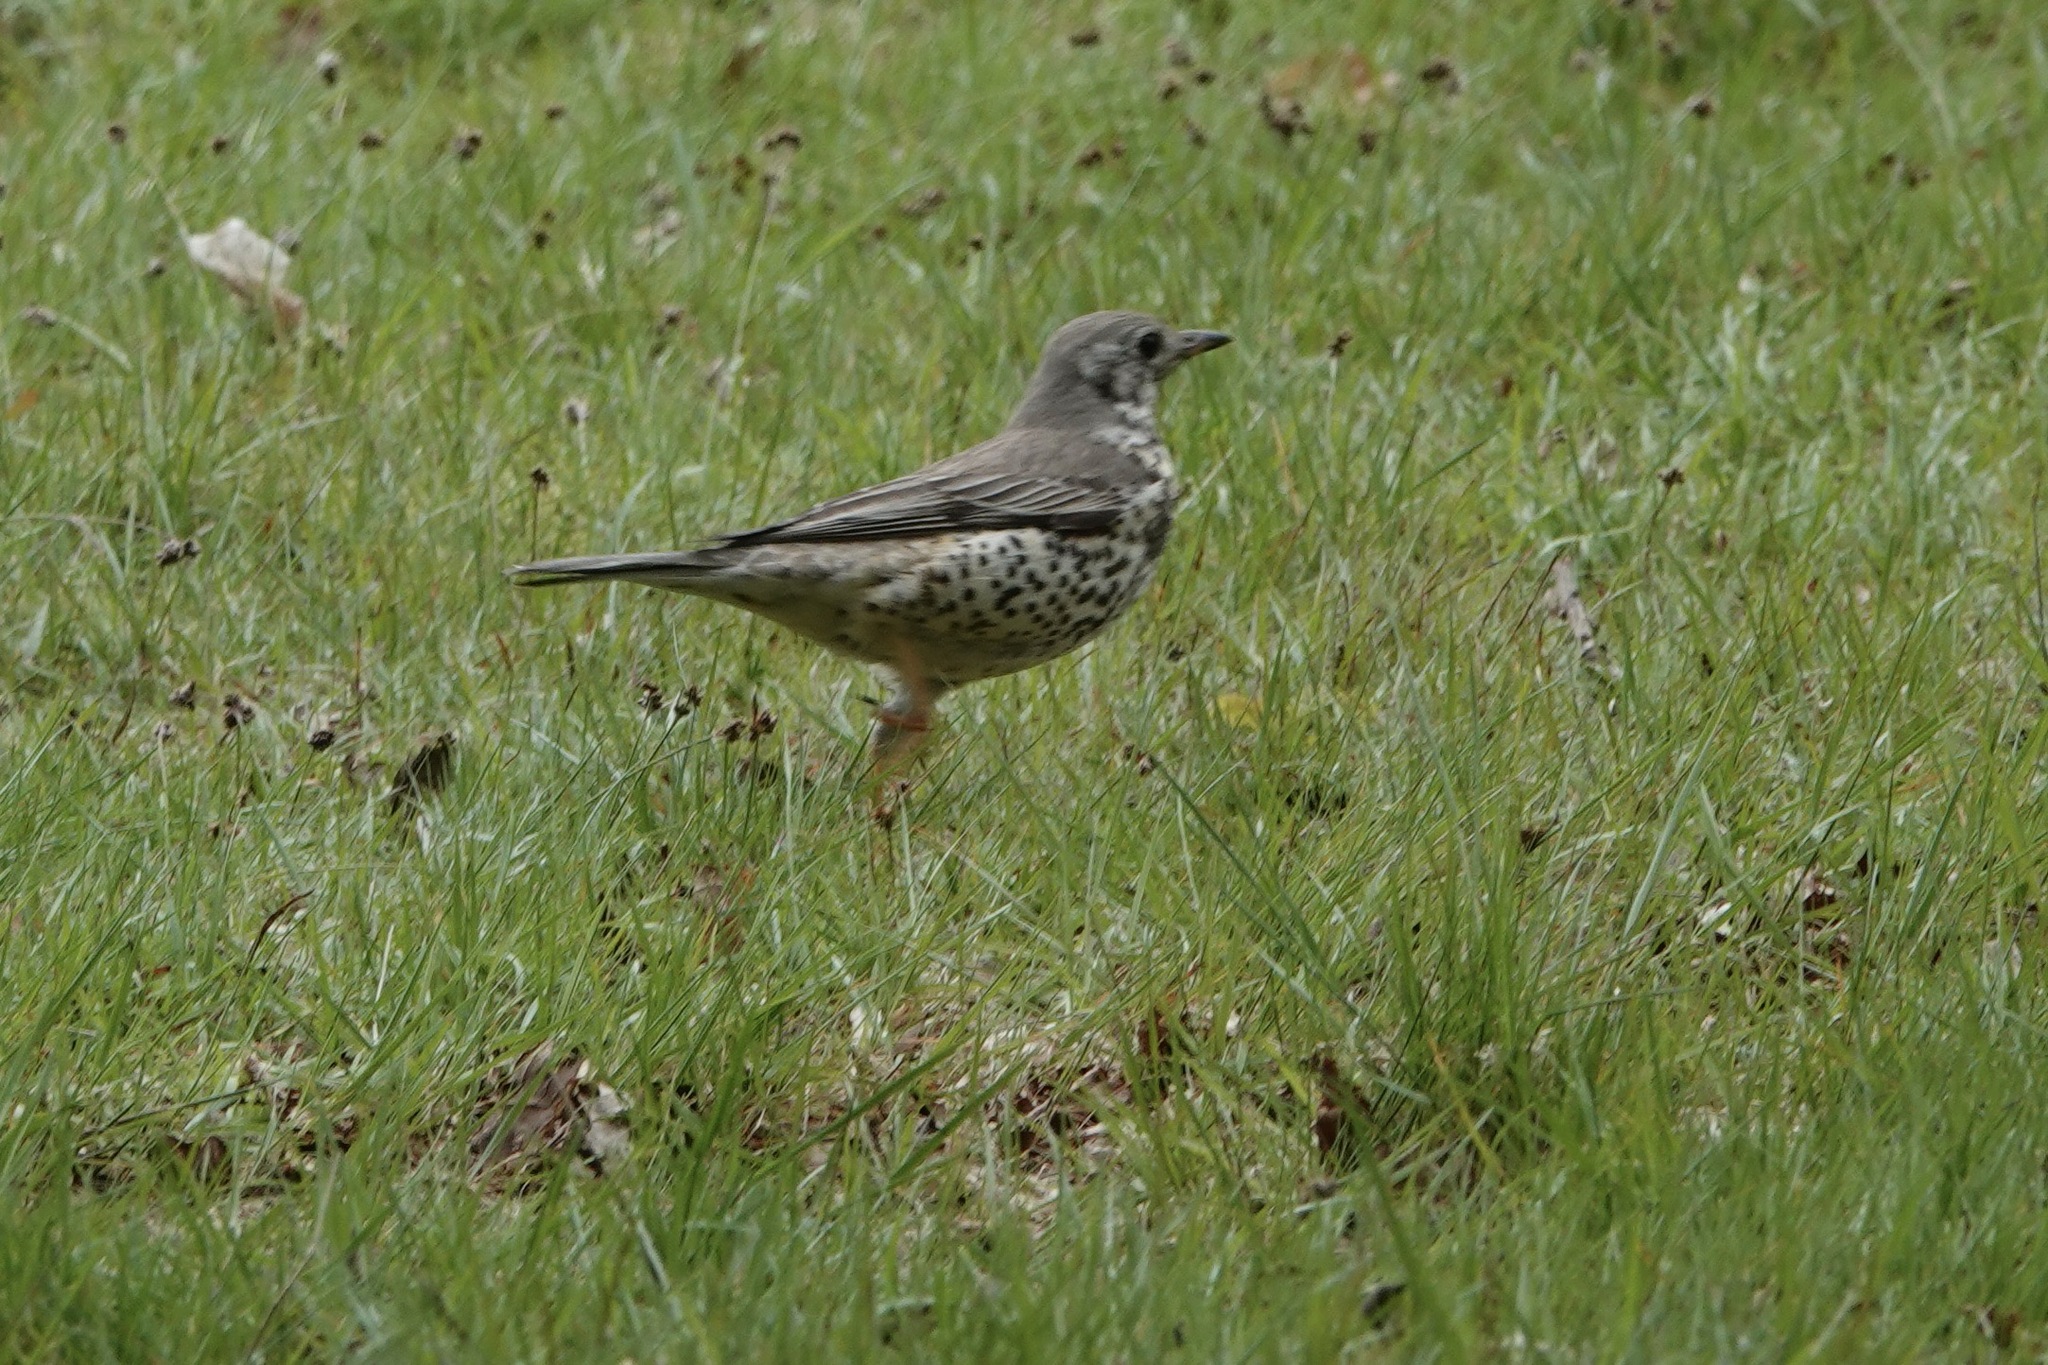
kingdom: Animalia
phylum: Chordata
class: Aves
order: Passeriformes
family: Turdidae
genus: Turdus
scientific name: Turdus viscivorus
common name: Mistle thrush
